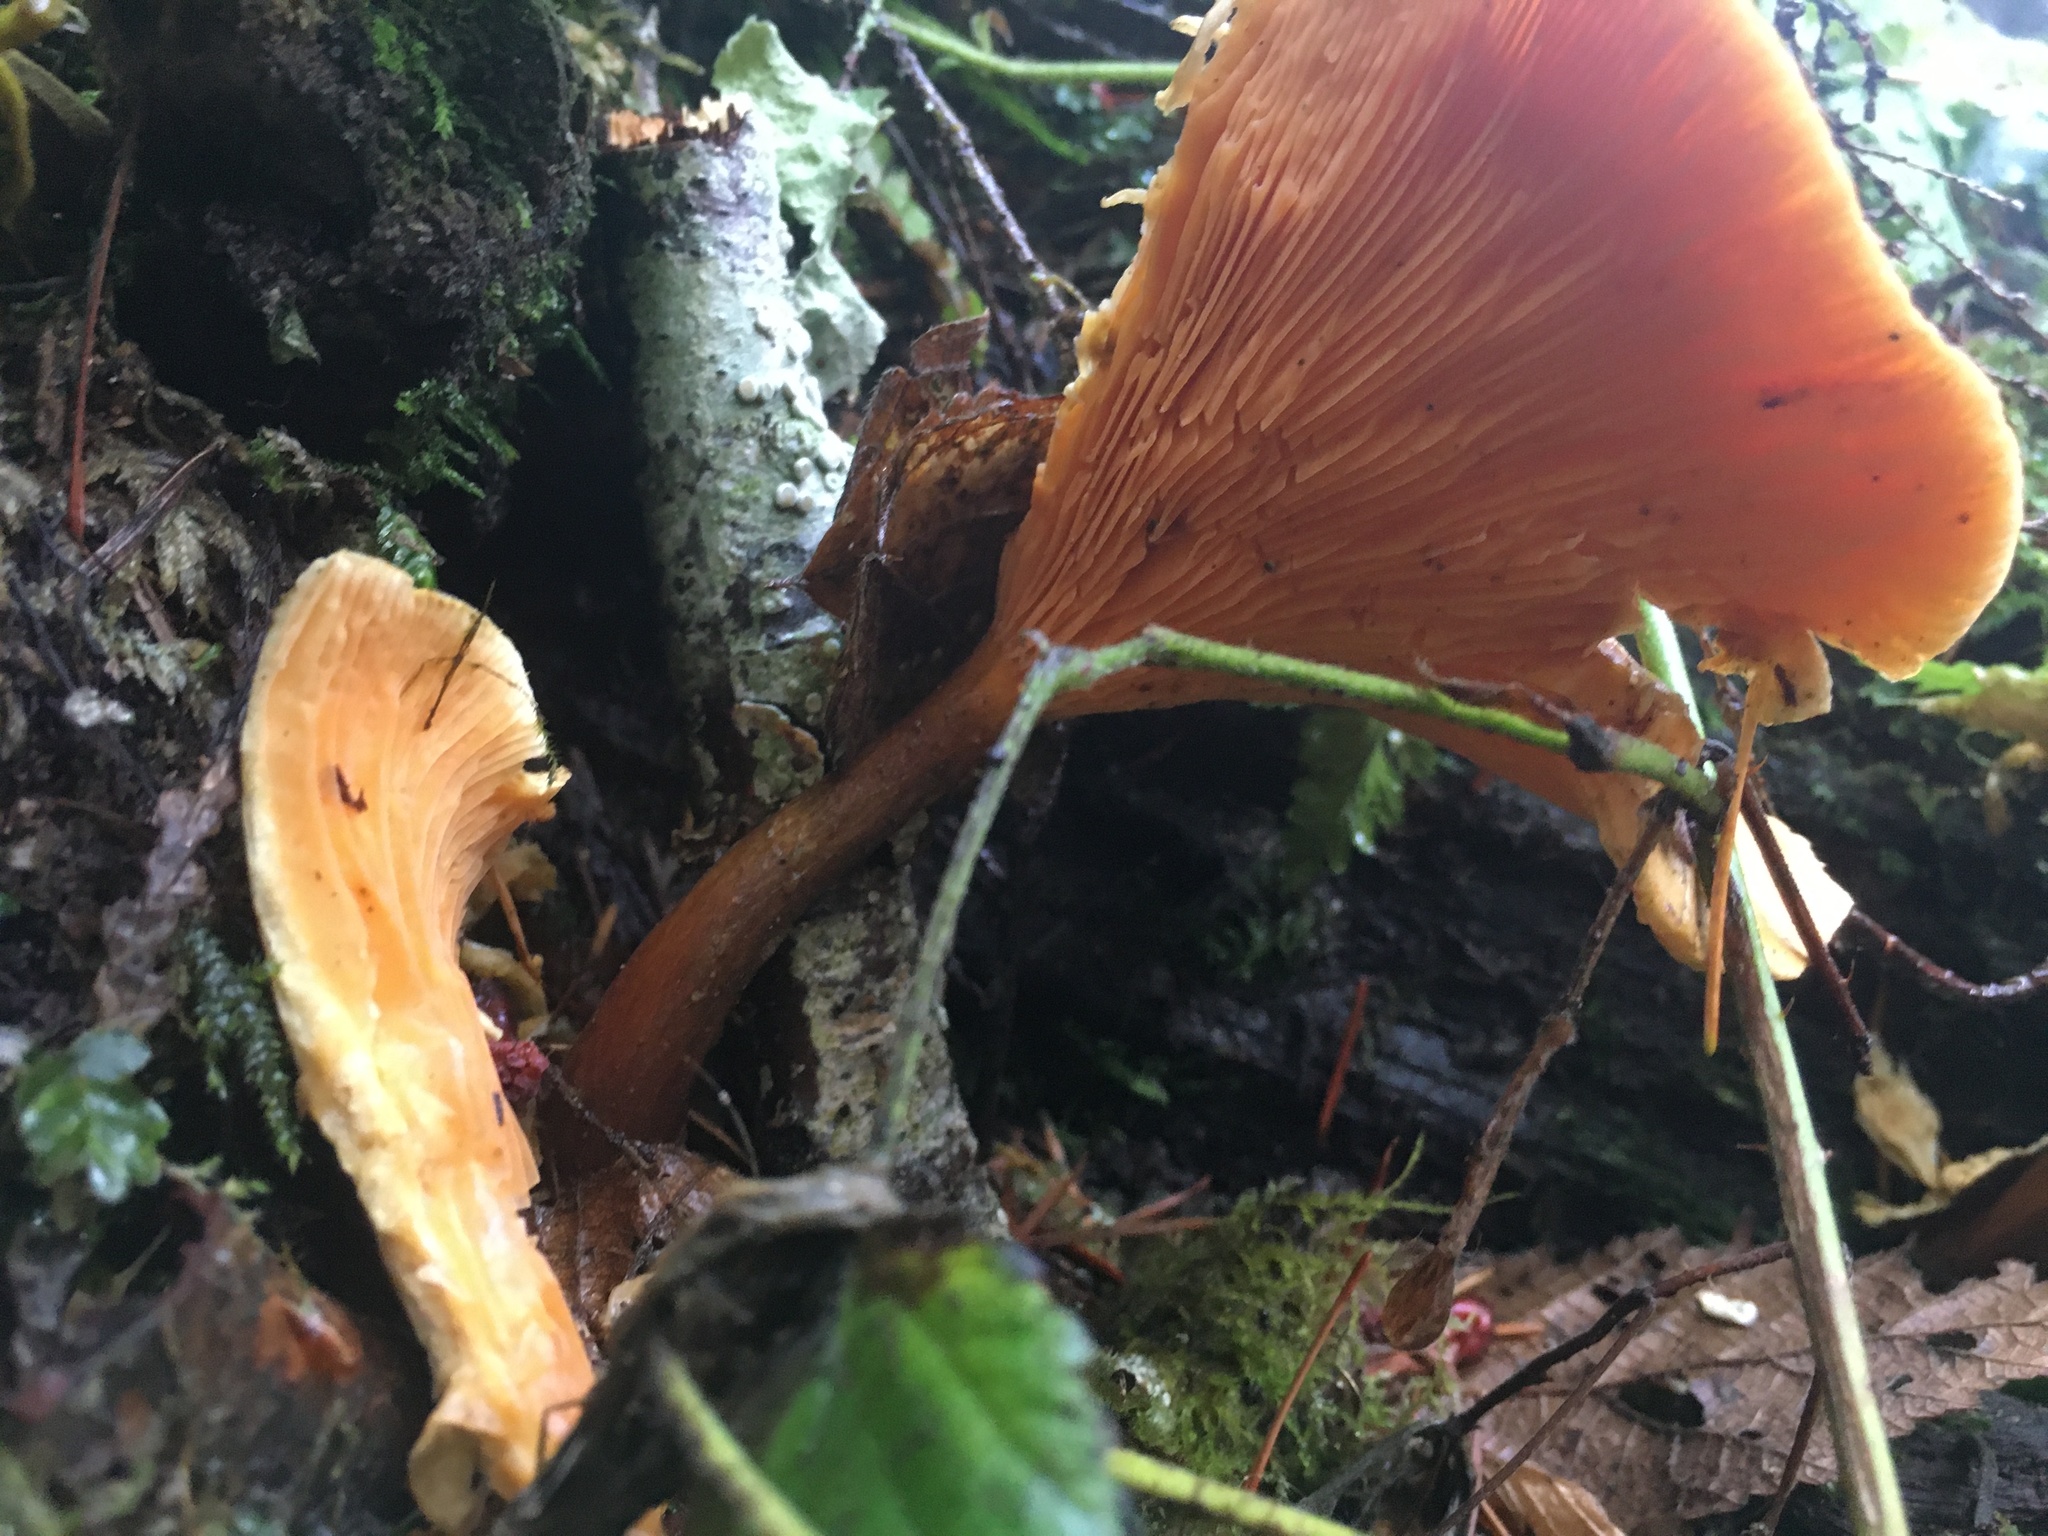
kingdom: Fungi
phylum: Basidiomycota
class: Agaricomycetes
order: Boletales
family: Hygrophoropsidaceae
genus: Hygrophoropsis
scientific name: Hygrophoropsis aurantiaca
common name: False chanterelle
